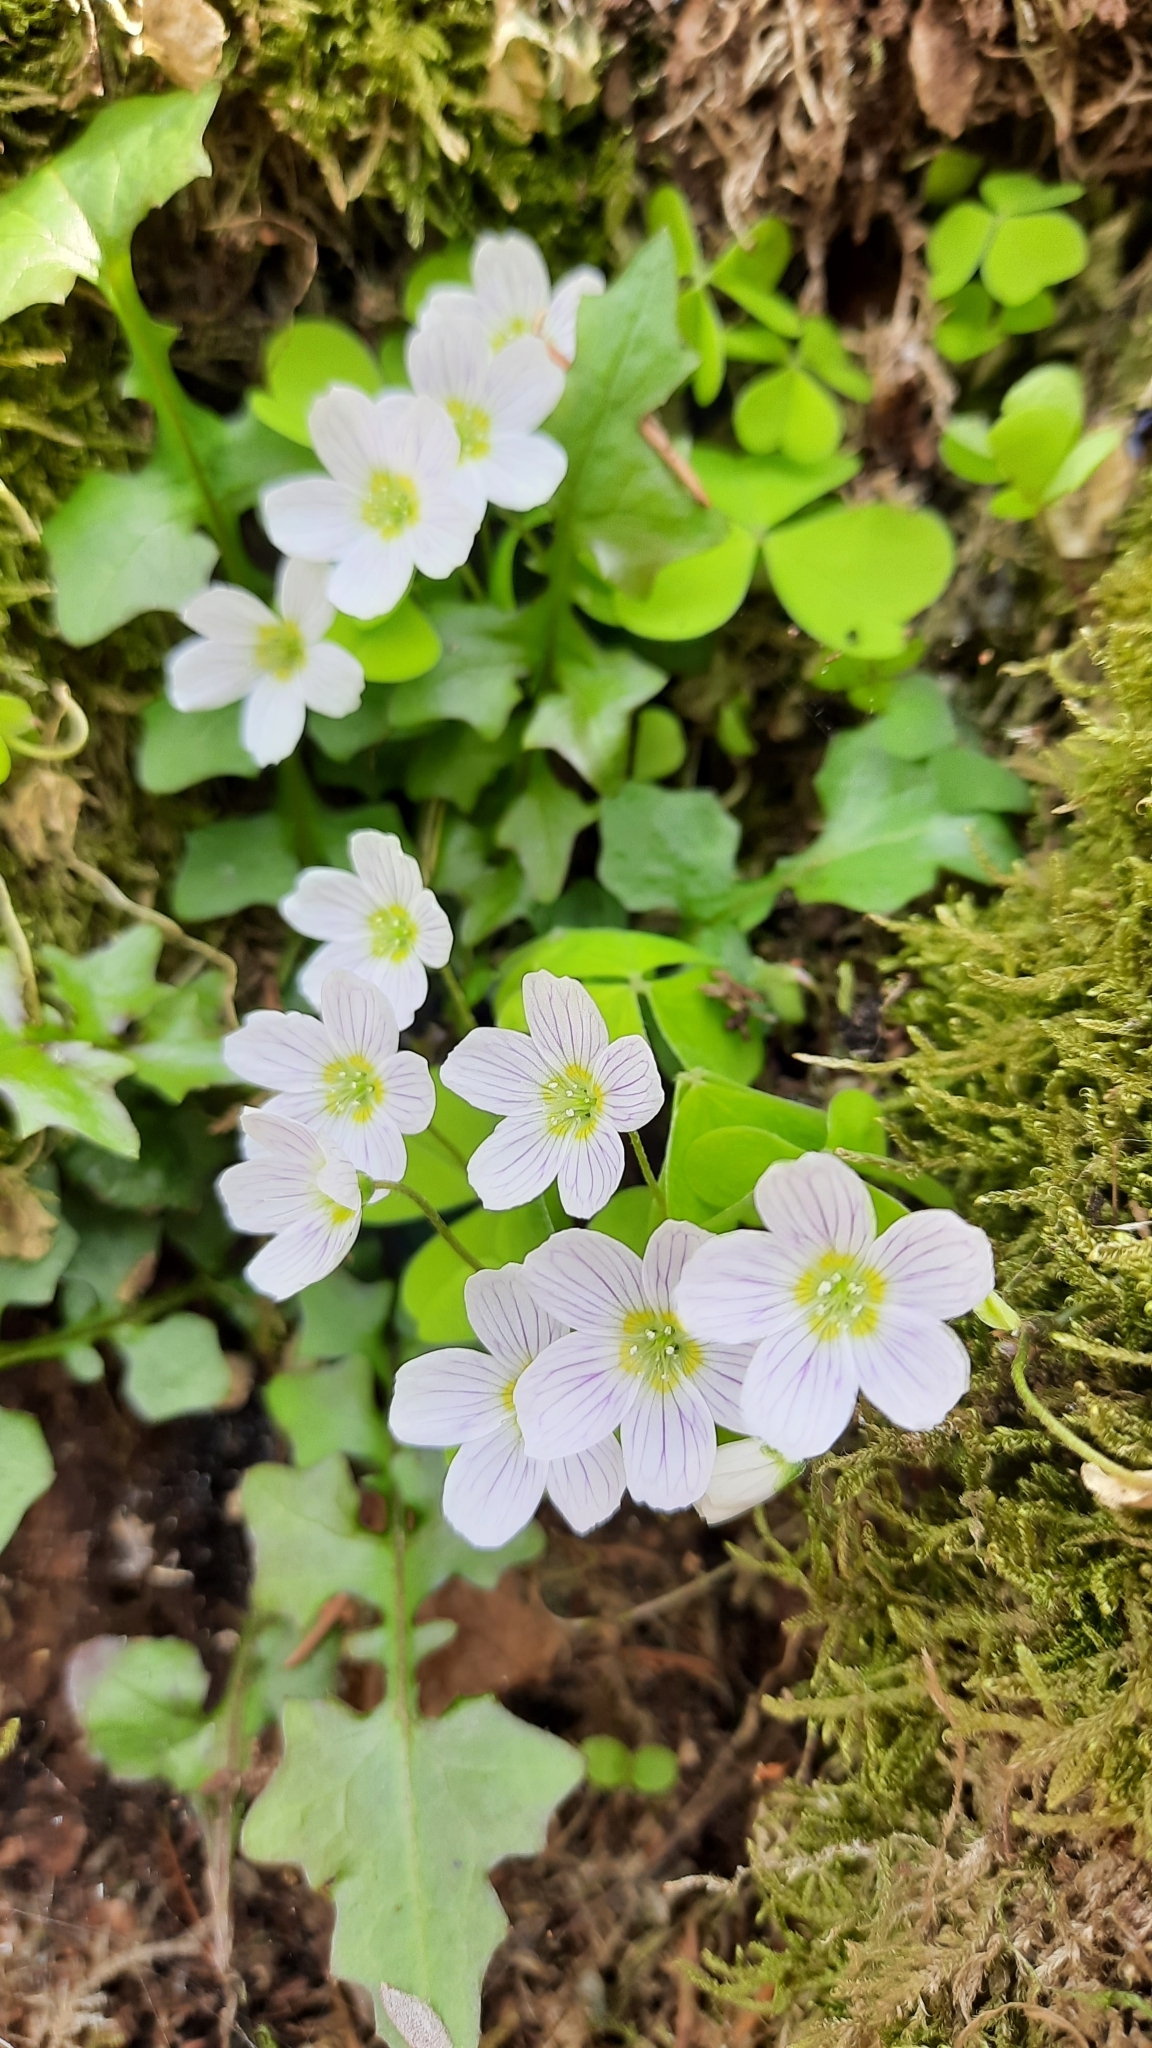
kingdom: Plantae
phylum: Tracheophyta
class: Magnoliopsida
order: Oxalidales
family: Oxalidaceae
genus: Oxalis
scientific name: Oxalis acetosella
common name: Wood-sorrel
